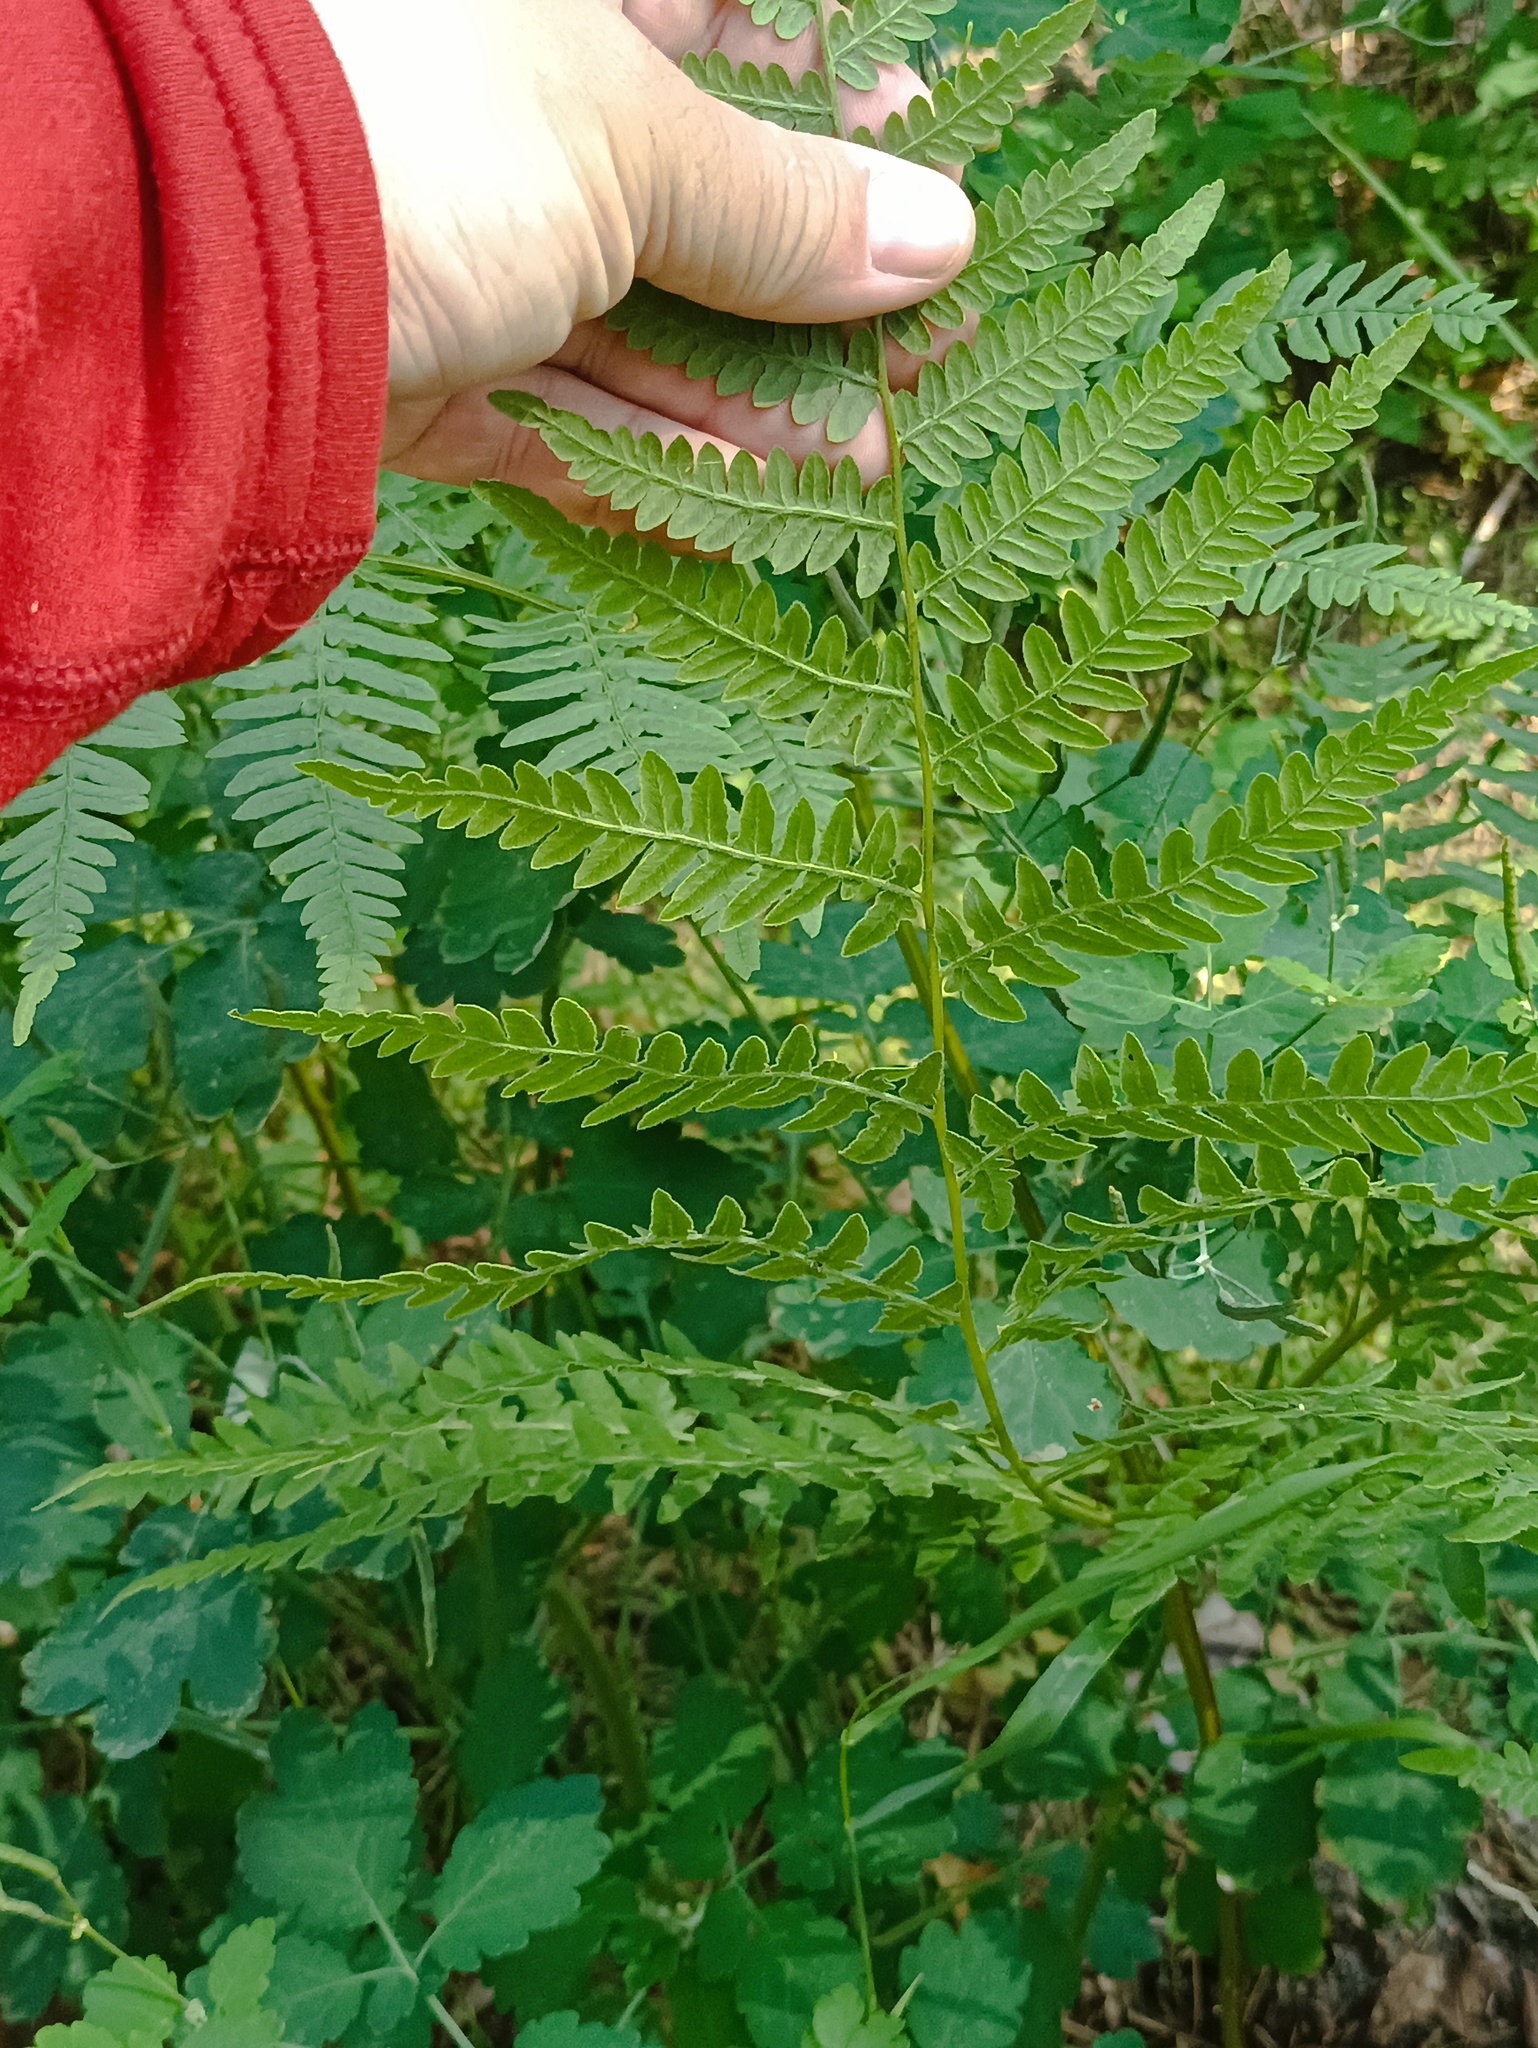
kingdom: Plantae
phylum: Tracheophyta
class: Polypodiopsida
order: Polypodiales
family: Dennstaedtiaceae
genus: Pteridium
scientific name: Pteridium aquilinum
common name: Bracken
